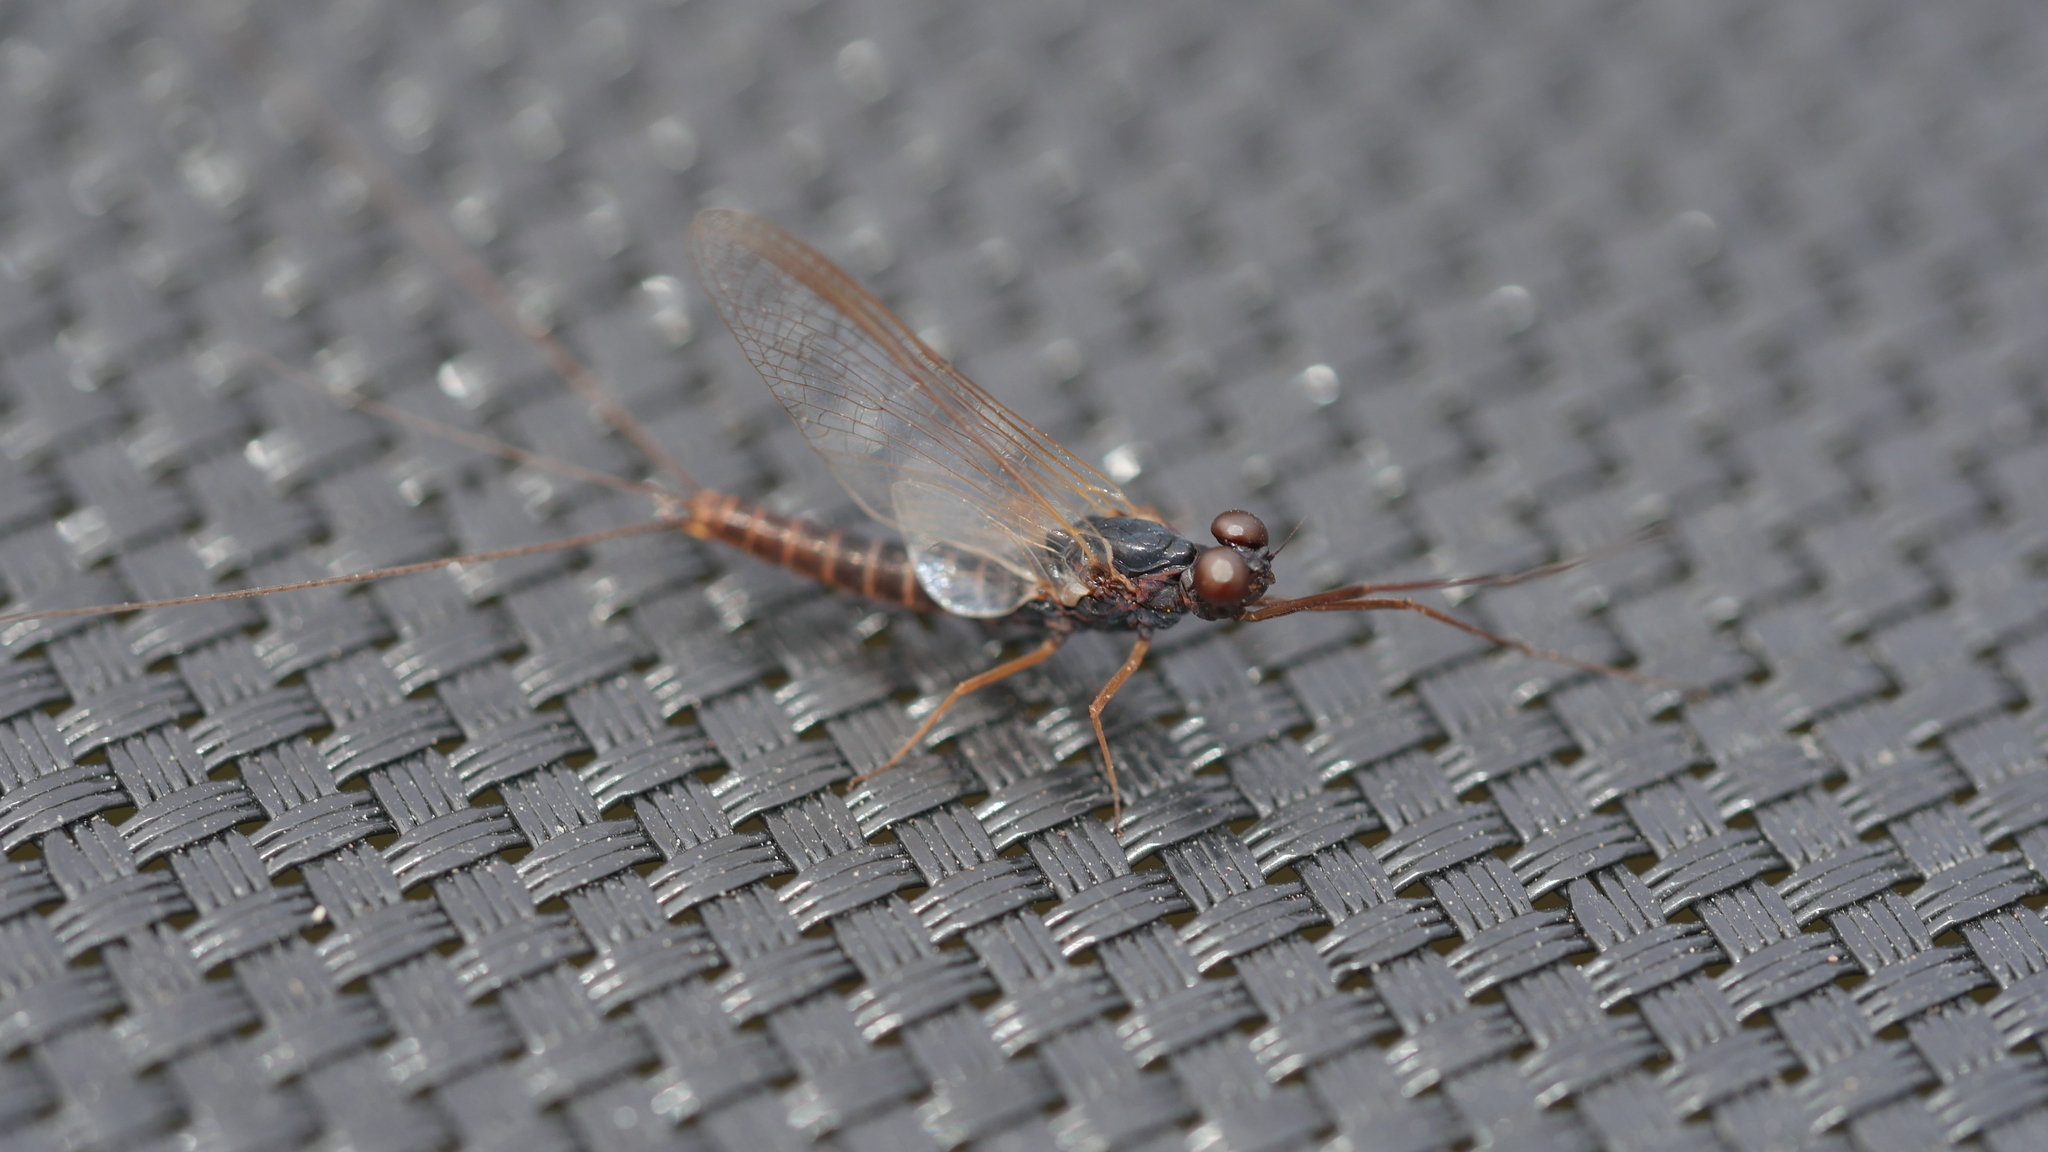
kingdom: Animalia
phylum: Arthropoda
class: Insecta
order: Ephemeroptera
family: Leptophlebiidae
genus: Leptophlebia
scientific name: Leptophlebia cupida
